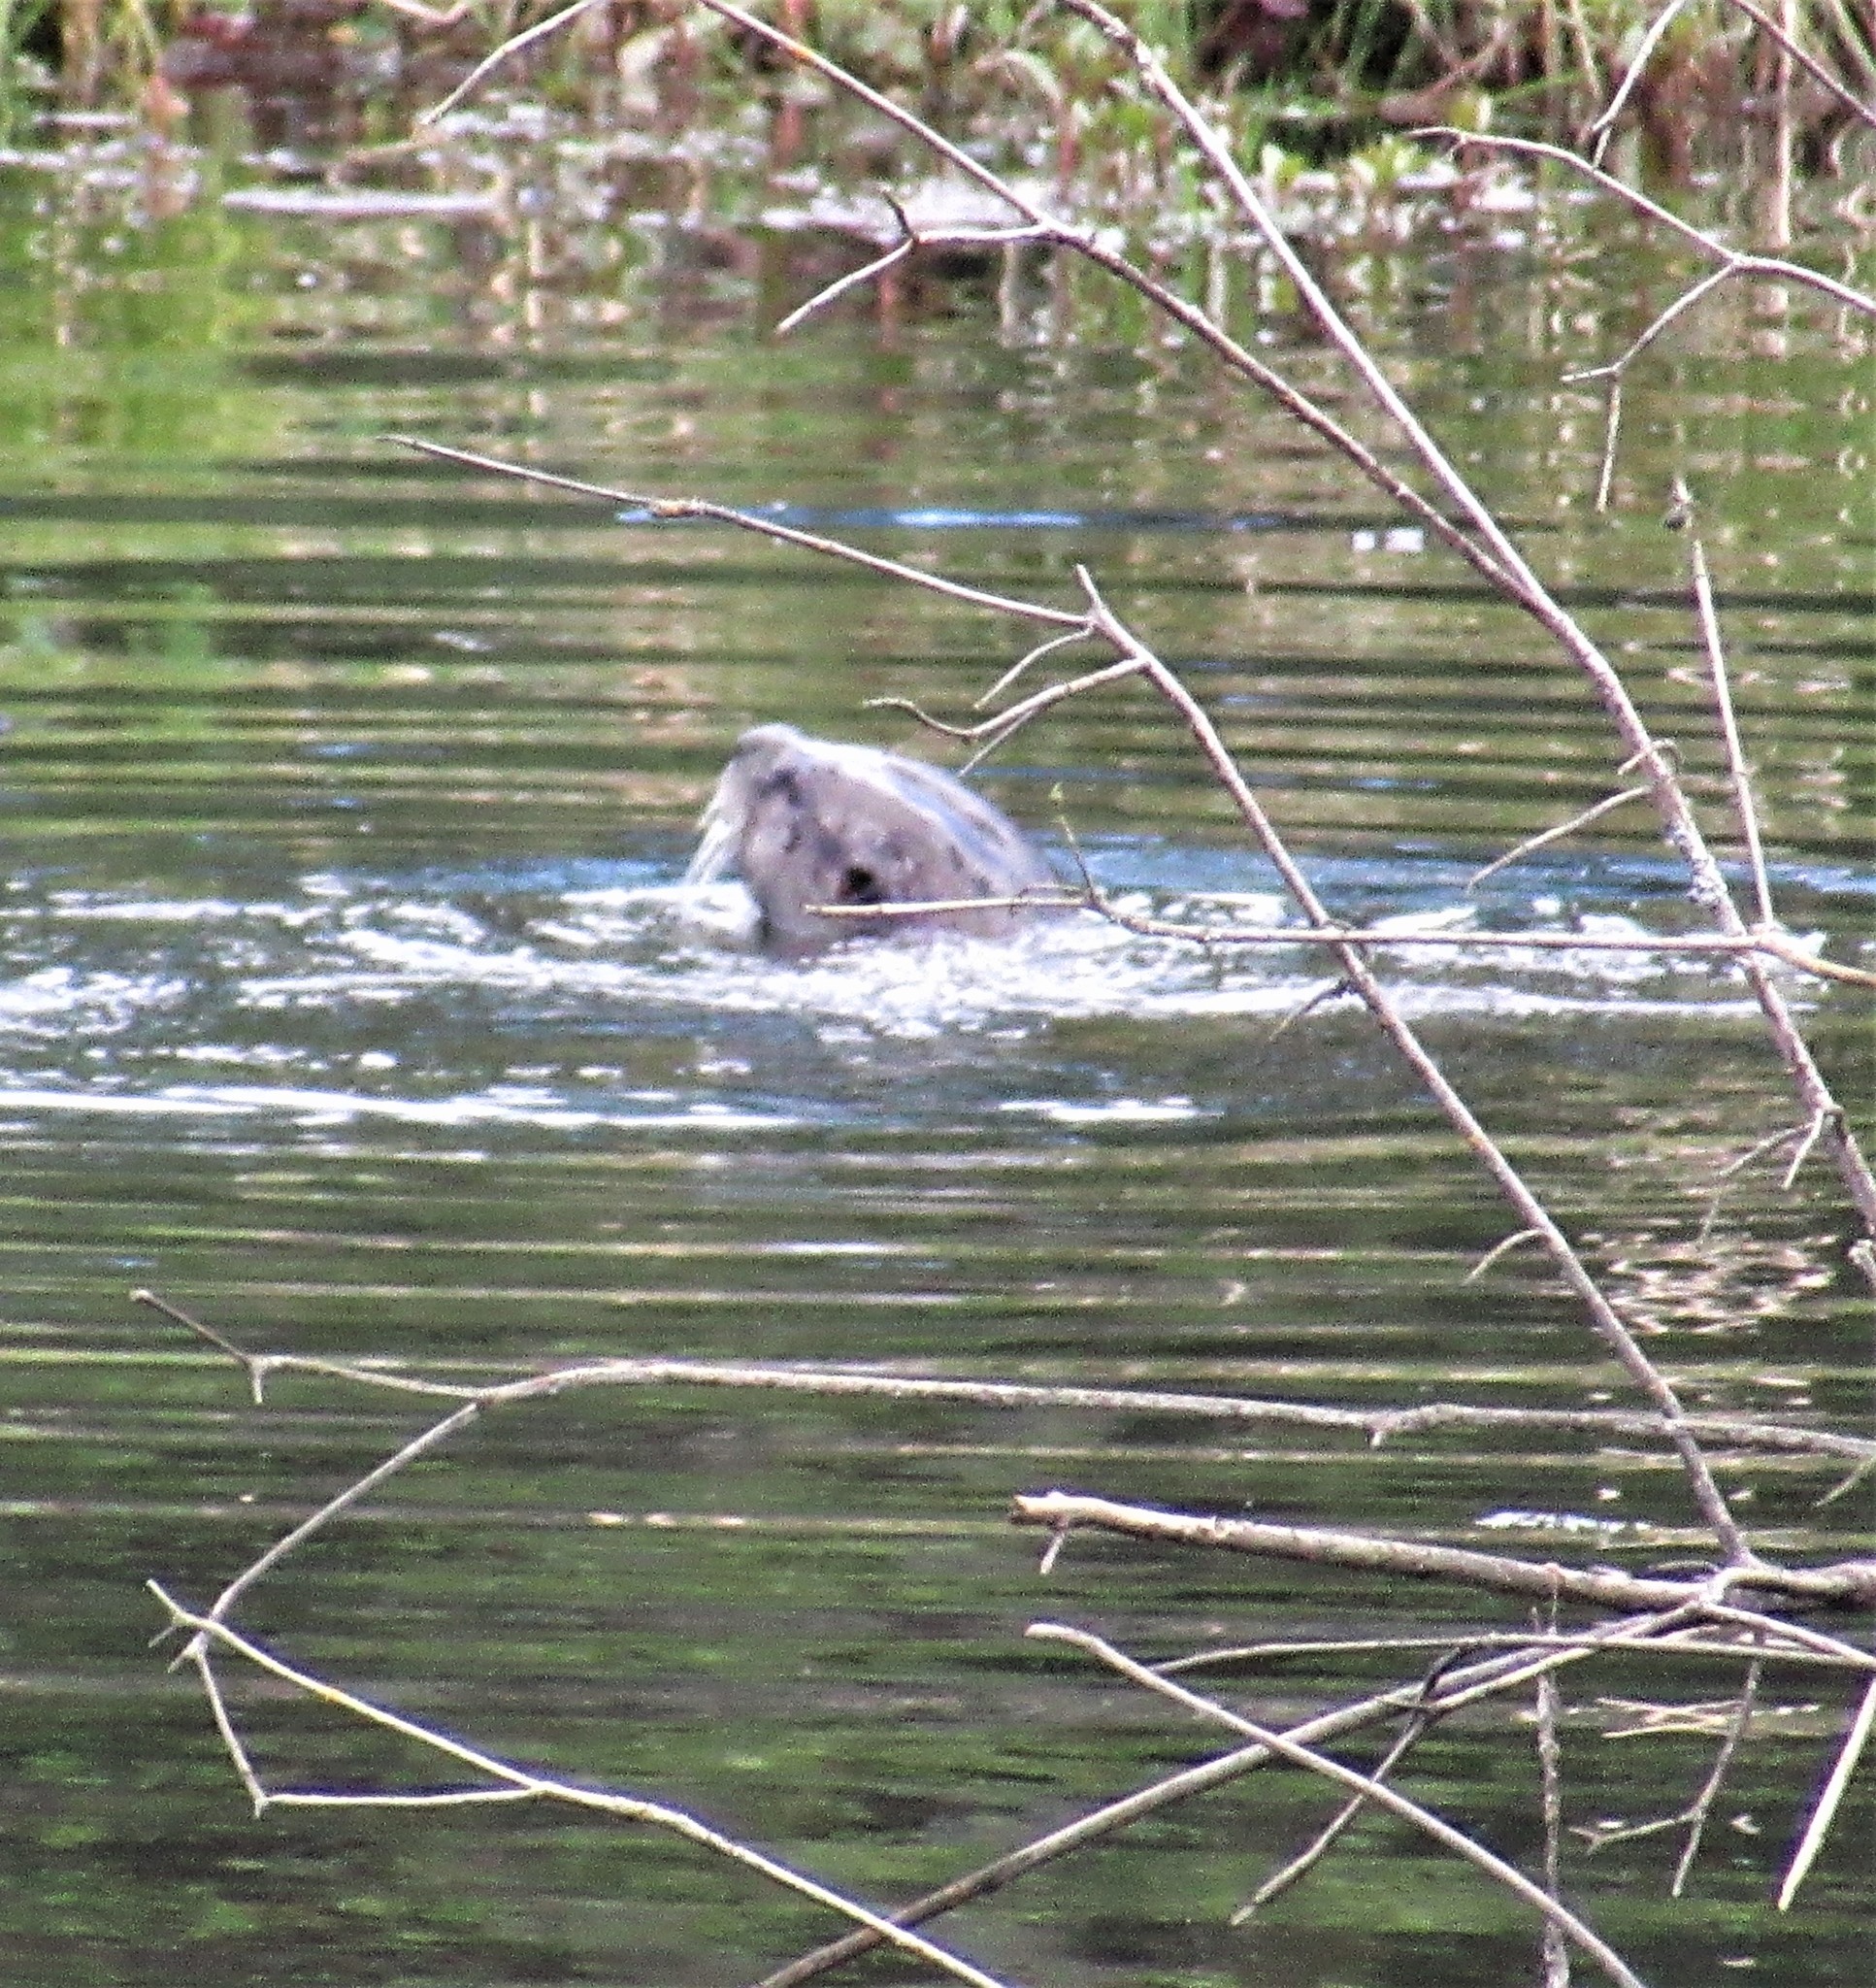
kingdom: Animalia
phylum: Chordata
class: Mammalia
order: Carnivora
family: Mustelidae
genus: Lontra
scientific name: Lontra canadensis
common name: North american river otter
